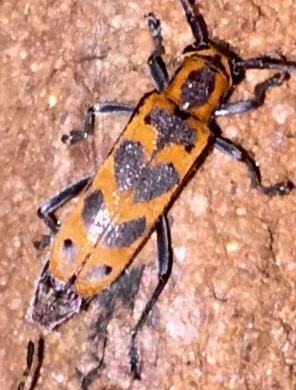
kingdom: Animalia
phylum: Arthropoda
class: Insecta
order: Coleoptera
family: Cerambycidae
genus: Saperda
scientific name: Saperda tridentata
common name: Elm borer
